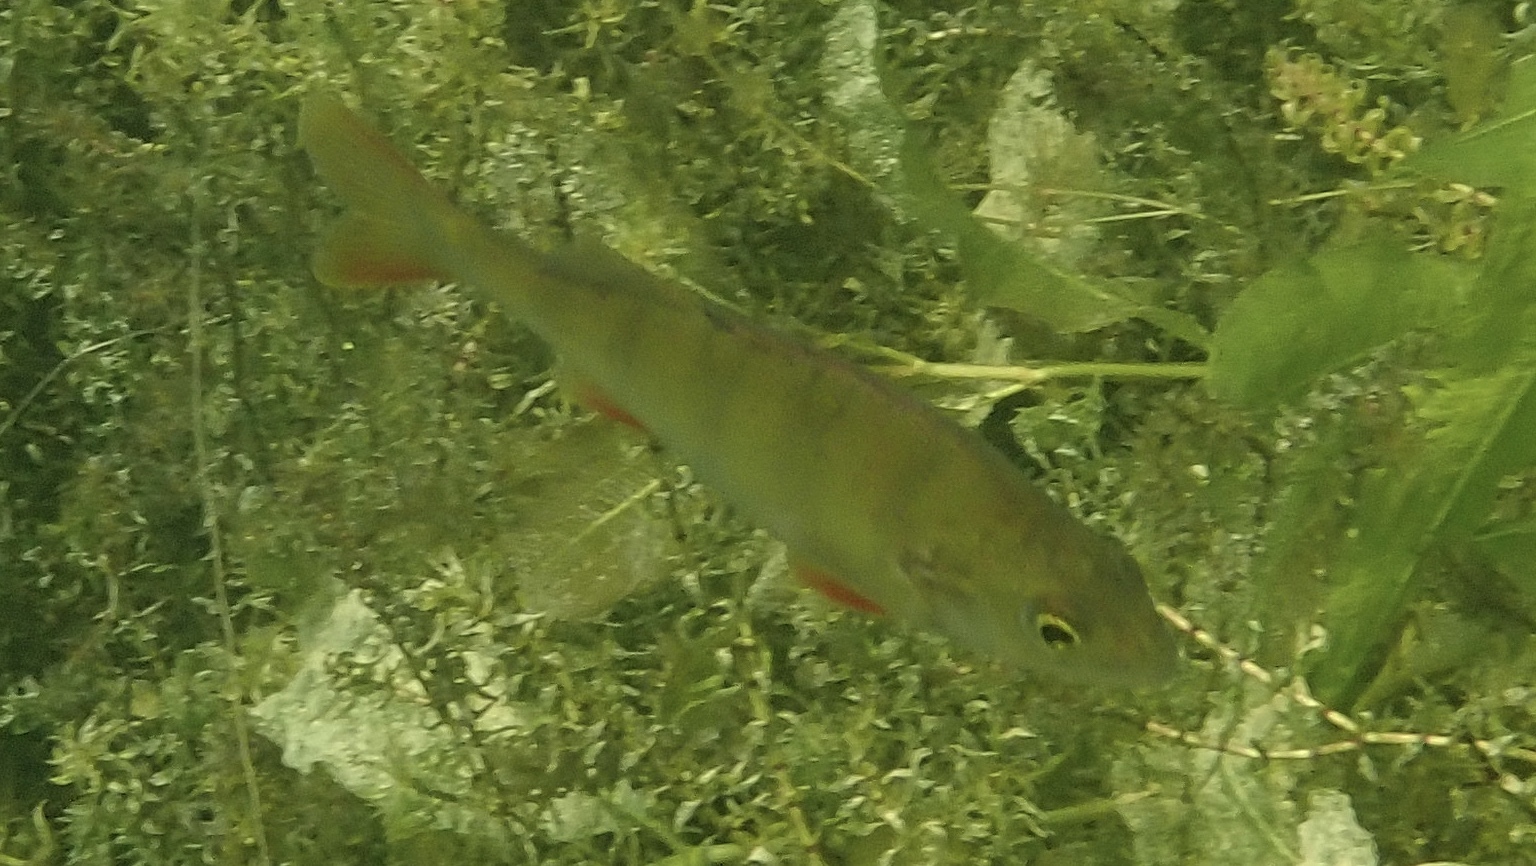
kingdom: Animalia
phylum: Chordata
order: Perciformes
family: Percidae
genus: Perca
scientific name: Perca fluviatilis
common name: Perch
